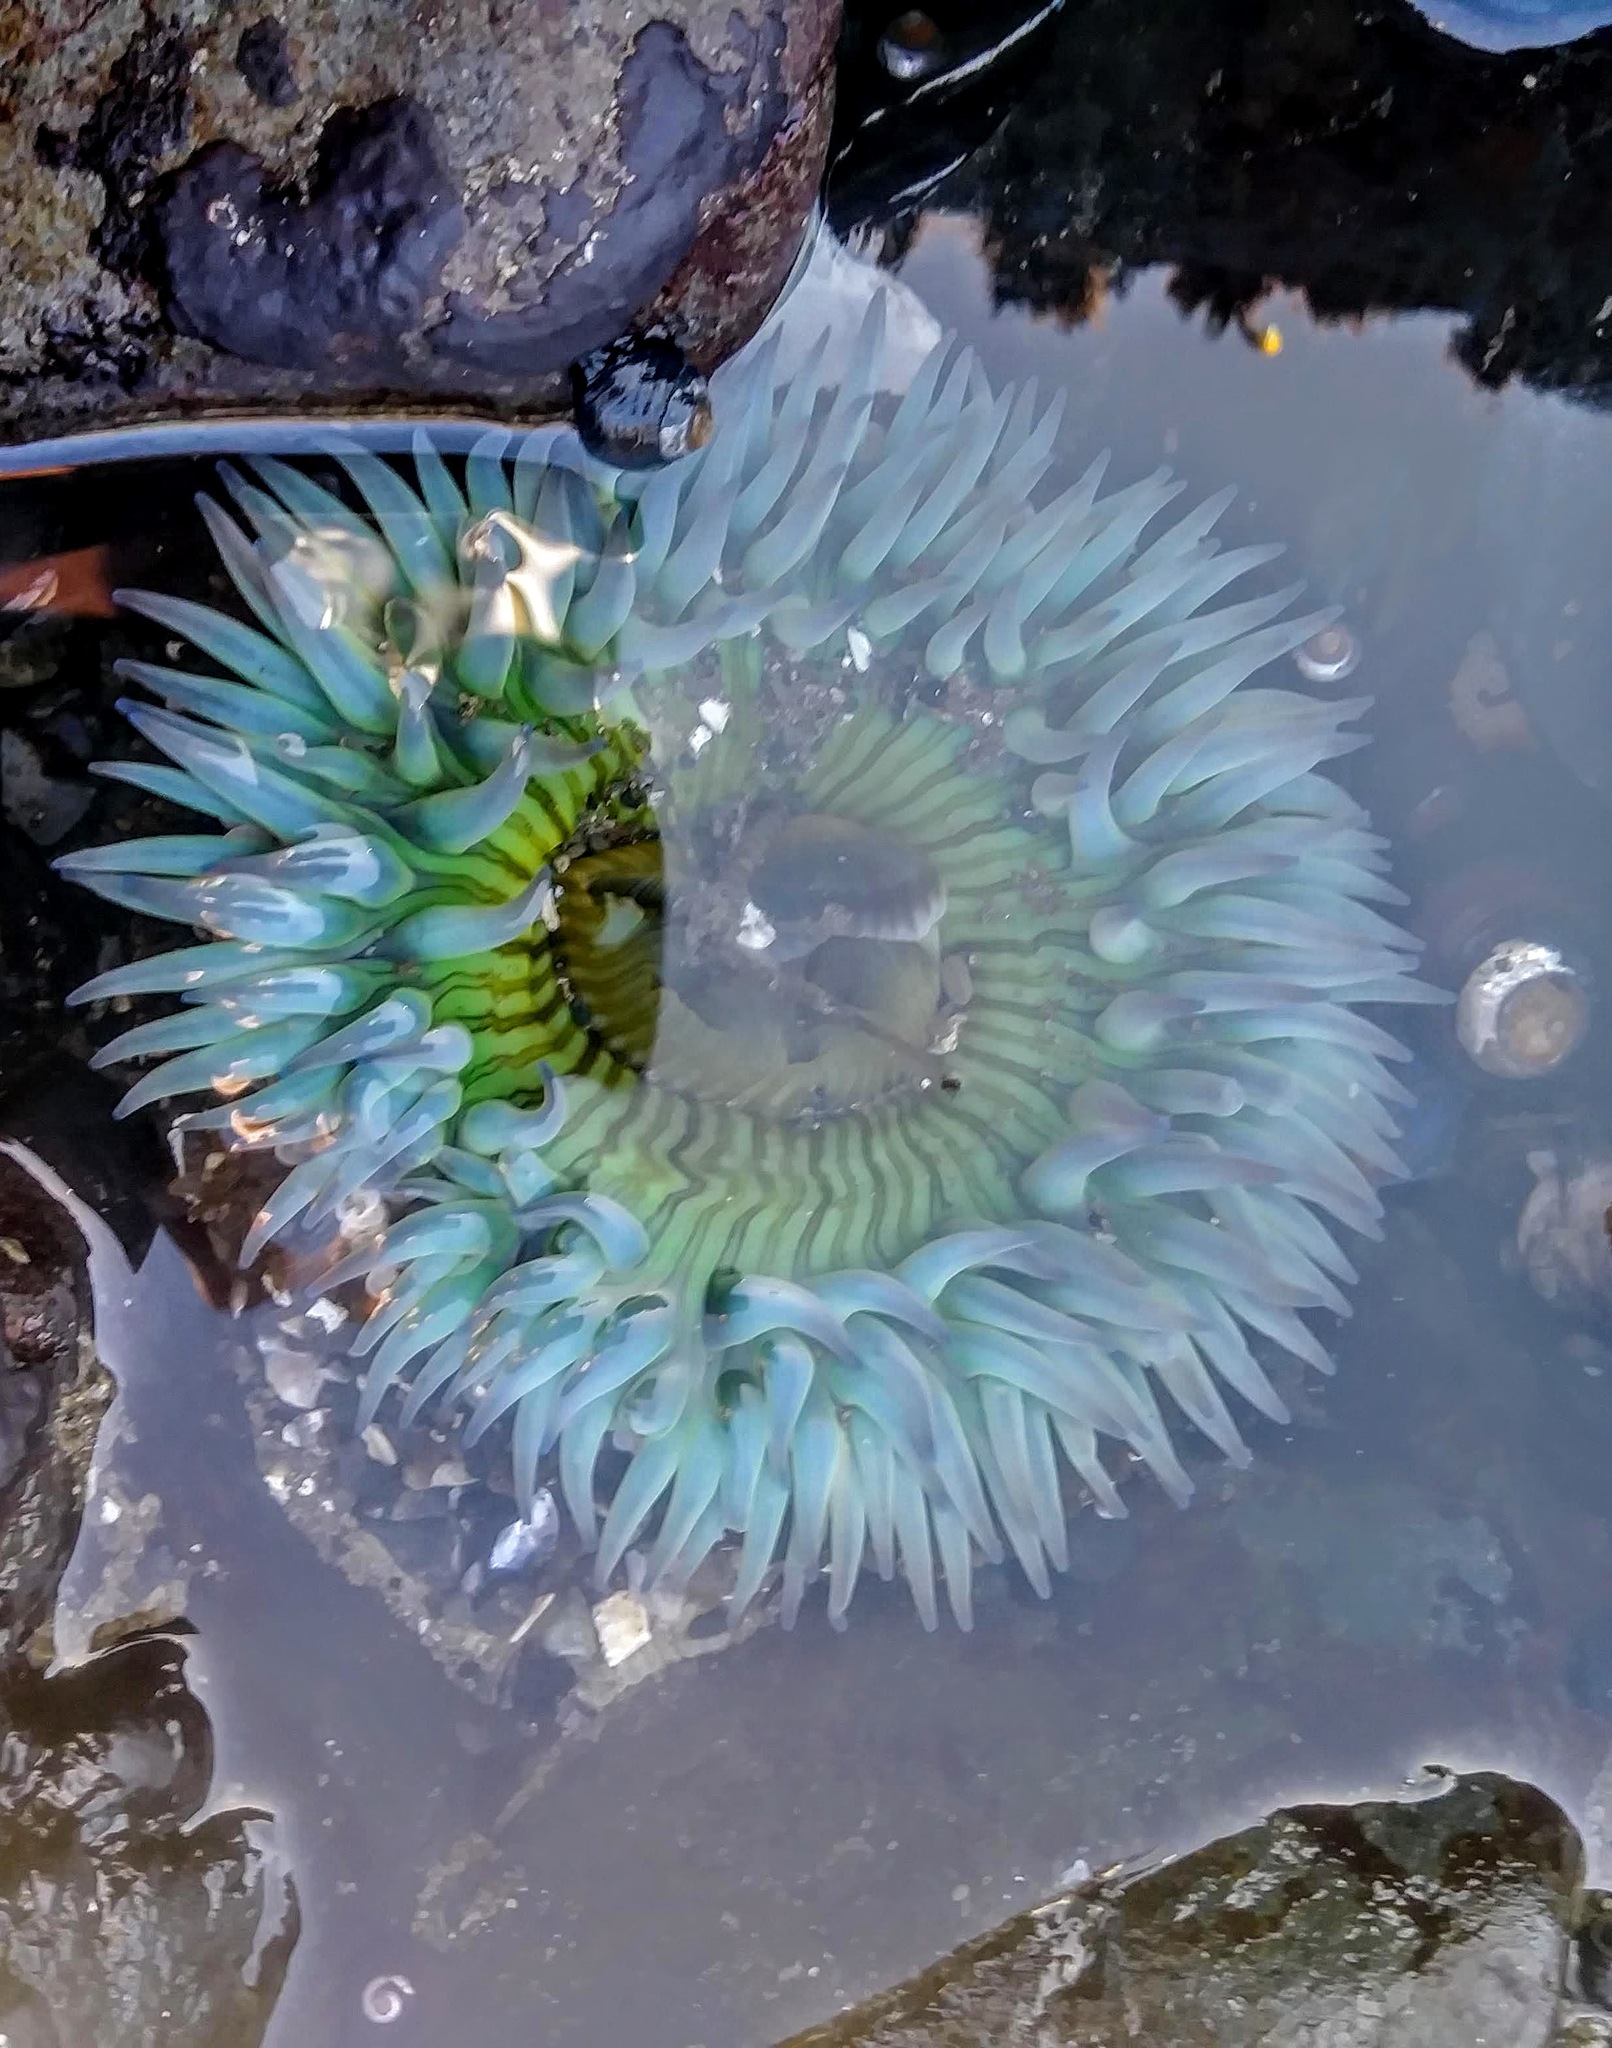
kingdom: Animalia
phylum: Cnidaria
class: Anthozoa
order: Actiniaria
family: Actiniidae
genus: Anthopleura
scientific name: Anthopleura sola
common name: Sun anemone
